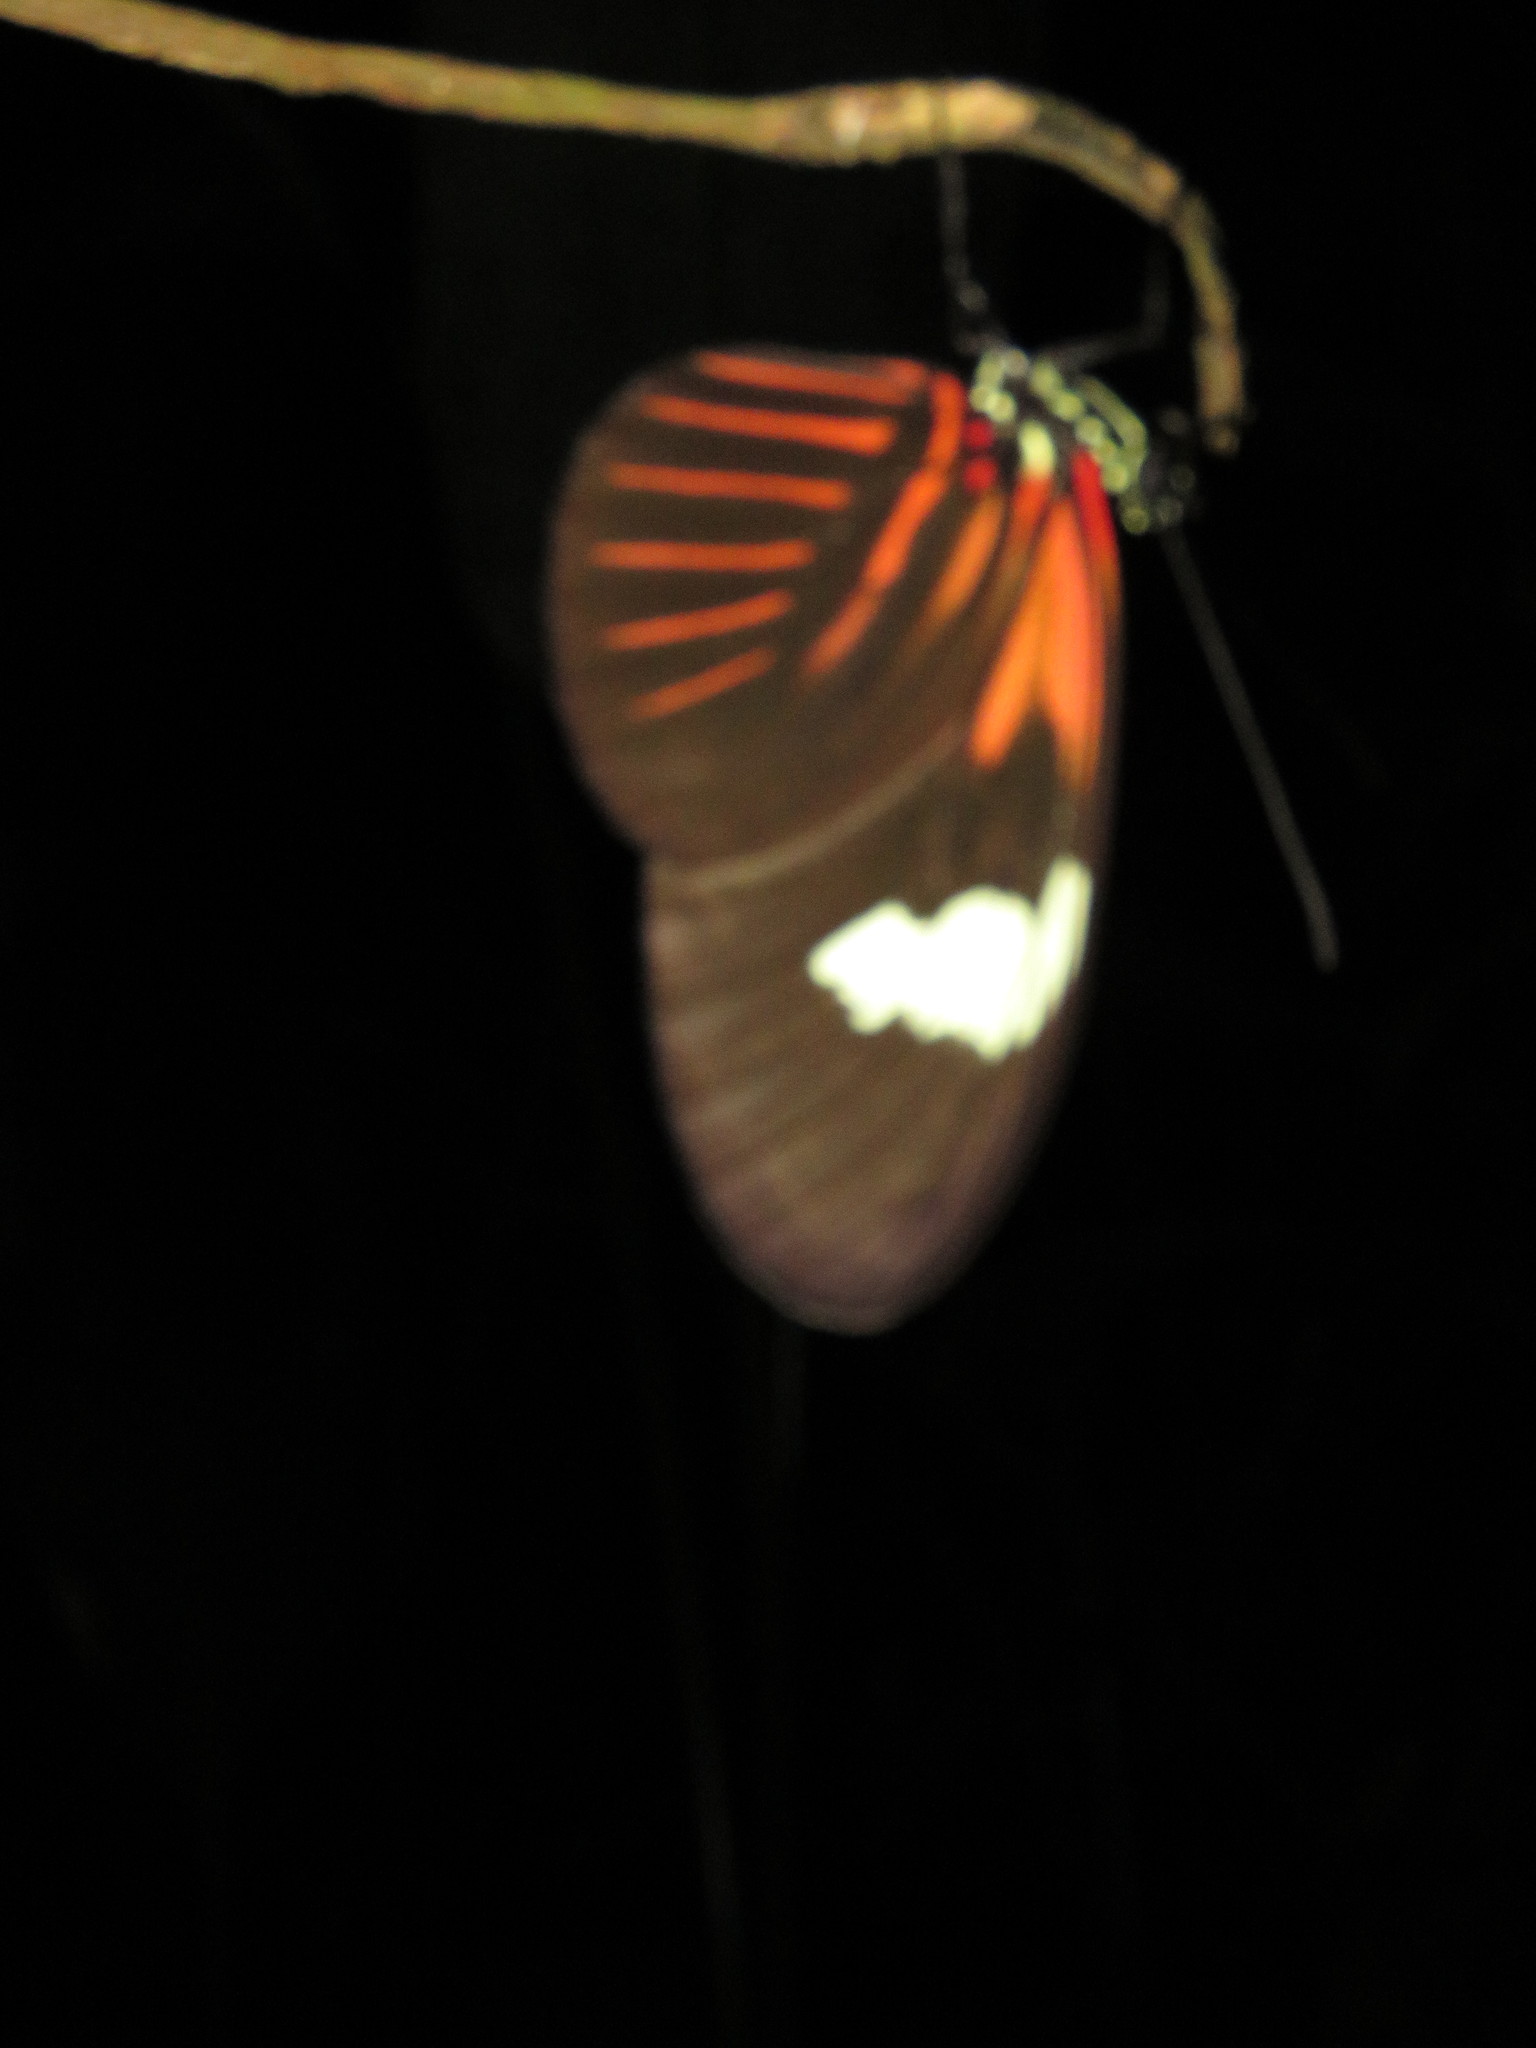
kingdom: Animalia
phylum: Arthropoda
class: Insecta
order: Lepidoptera
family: Nymphalidae
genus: Heliconius
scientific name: Heliconius melpomene
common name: Postman
